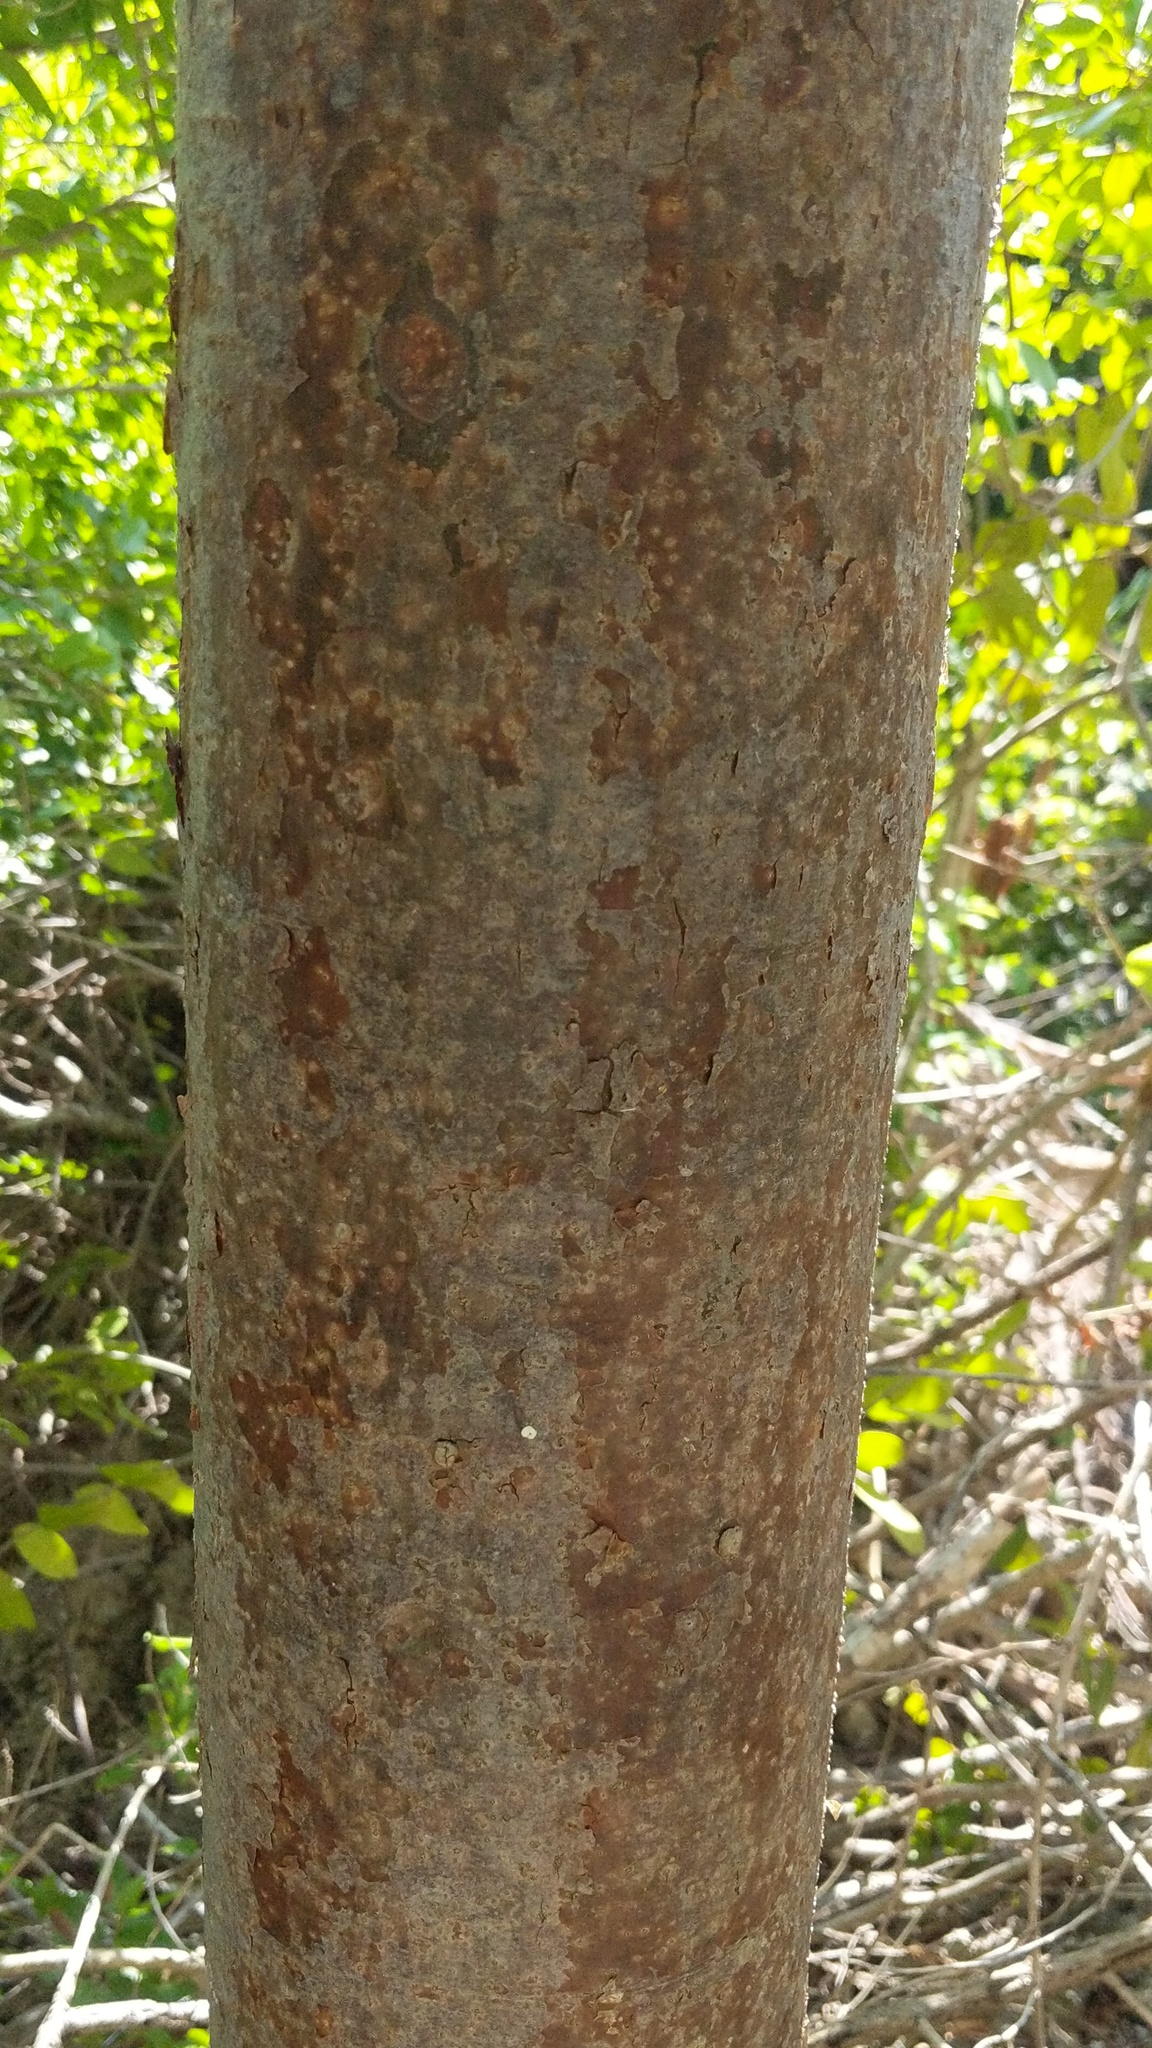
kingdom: Plantae
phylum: Tracheophyta
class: Magnoliopsida
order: Sapindales
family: Burseraceae
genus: Bursera
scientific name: Bursera simaruba
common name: Turpentine tree
